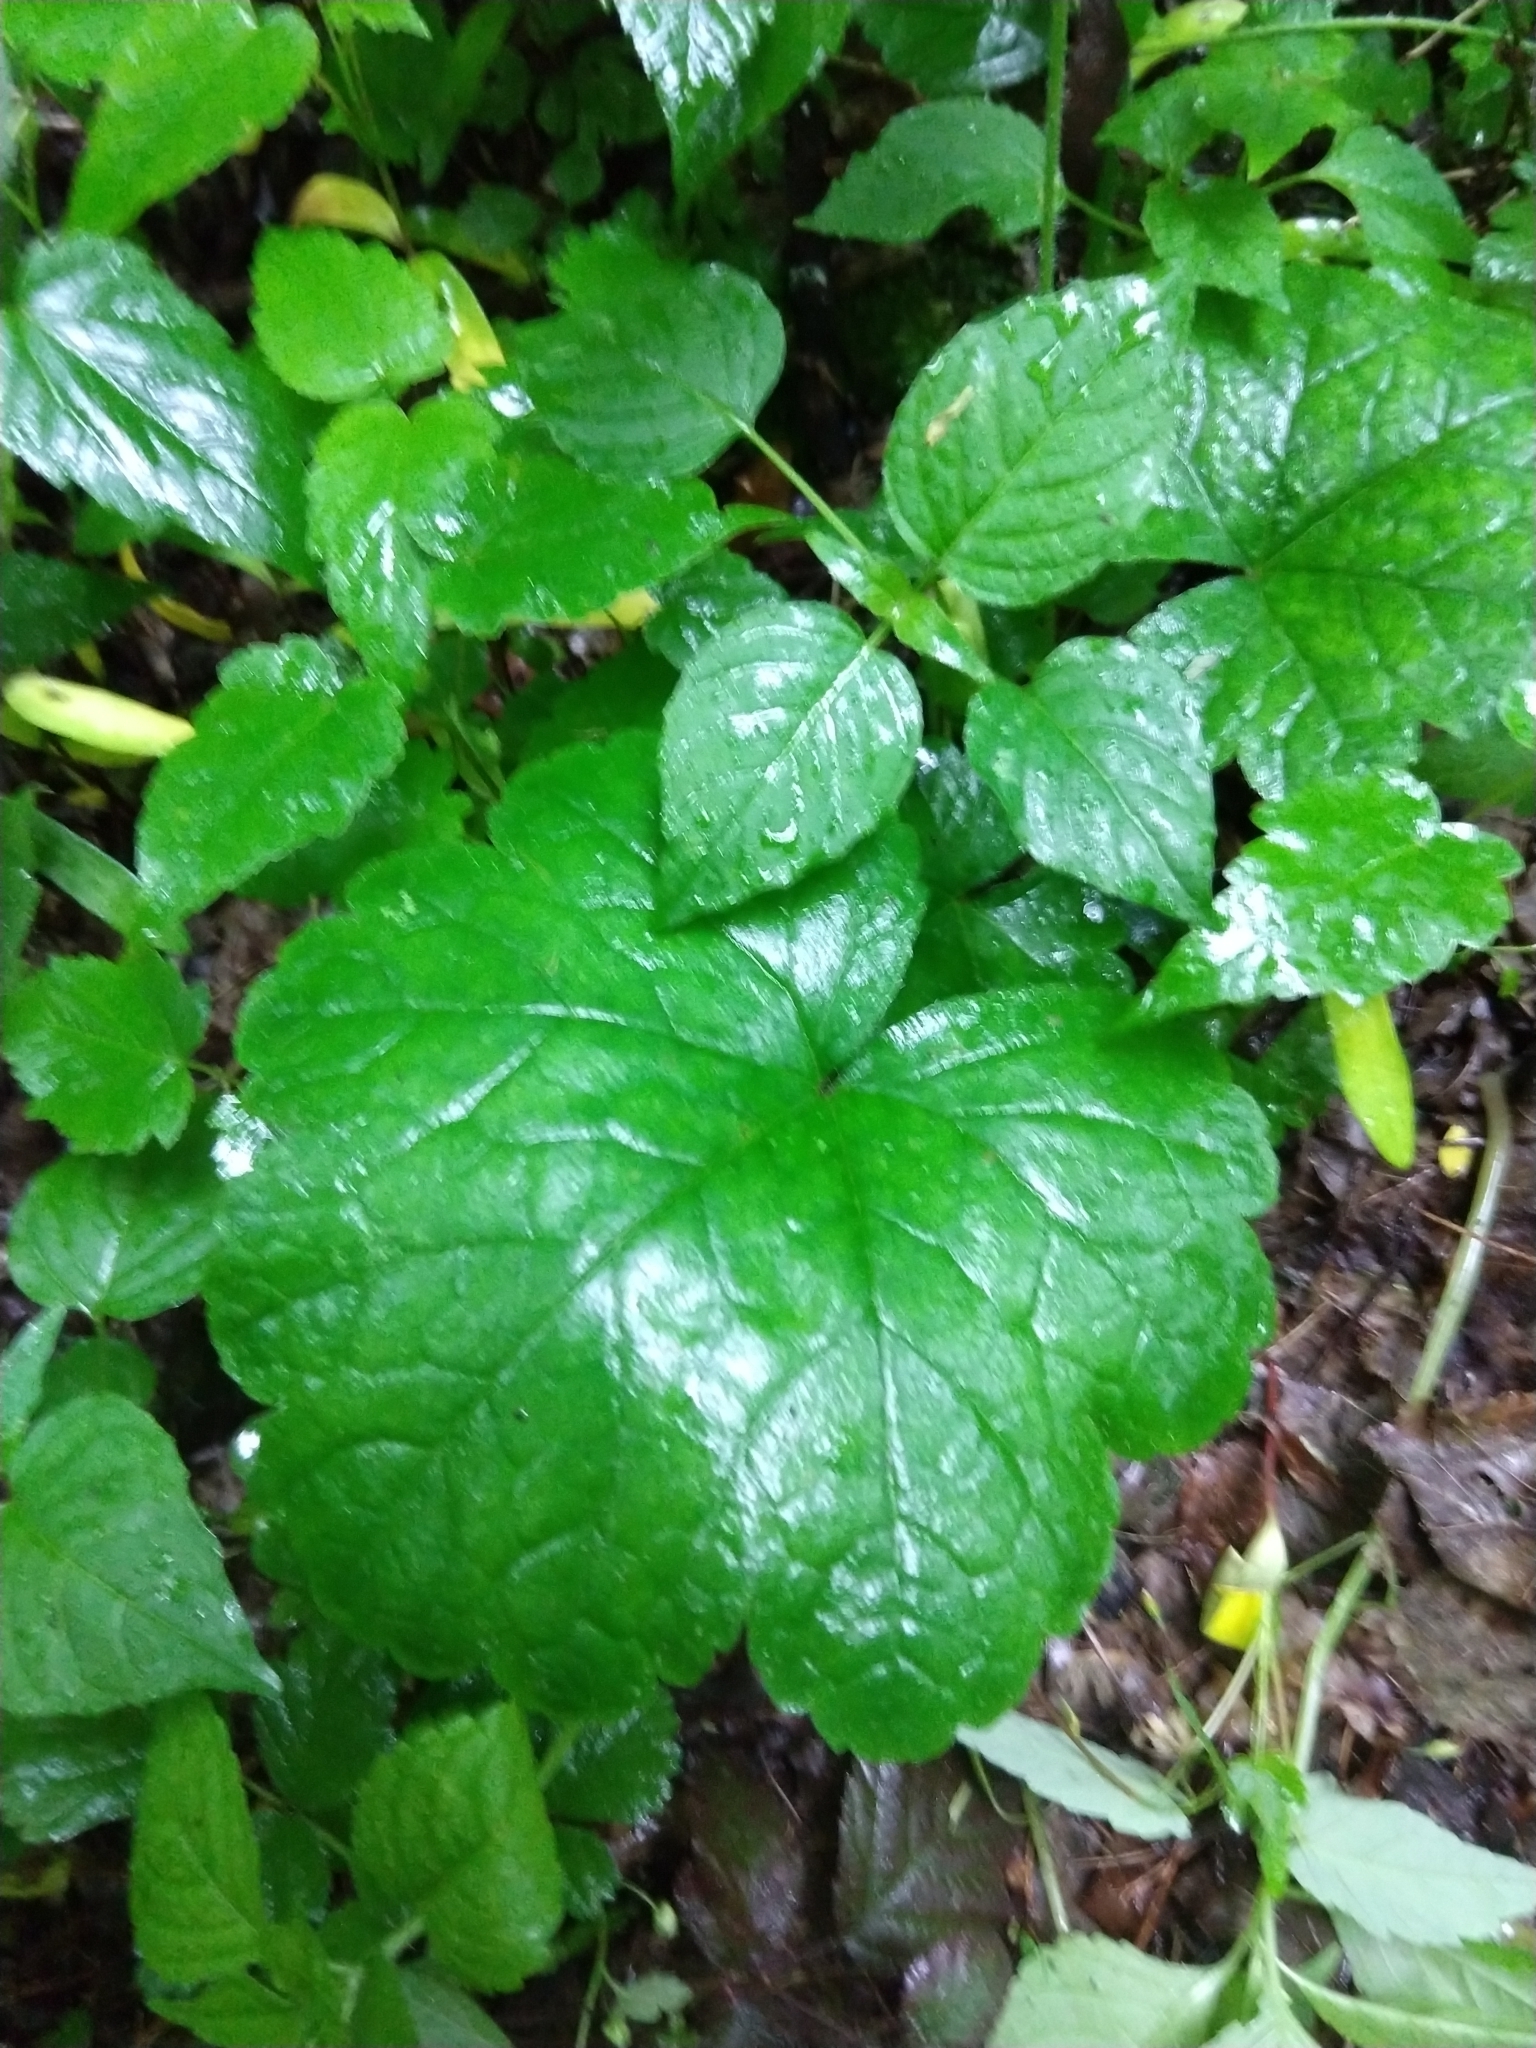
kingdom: Plantae
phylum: Tracheophyta
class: Magnoliopsida
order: Saxifragales
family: Saxifragaceae
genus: Tellima
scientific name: Tellima grandiflora
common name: Fringecups
